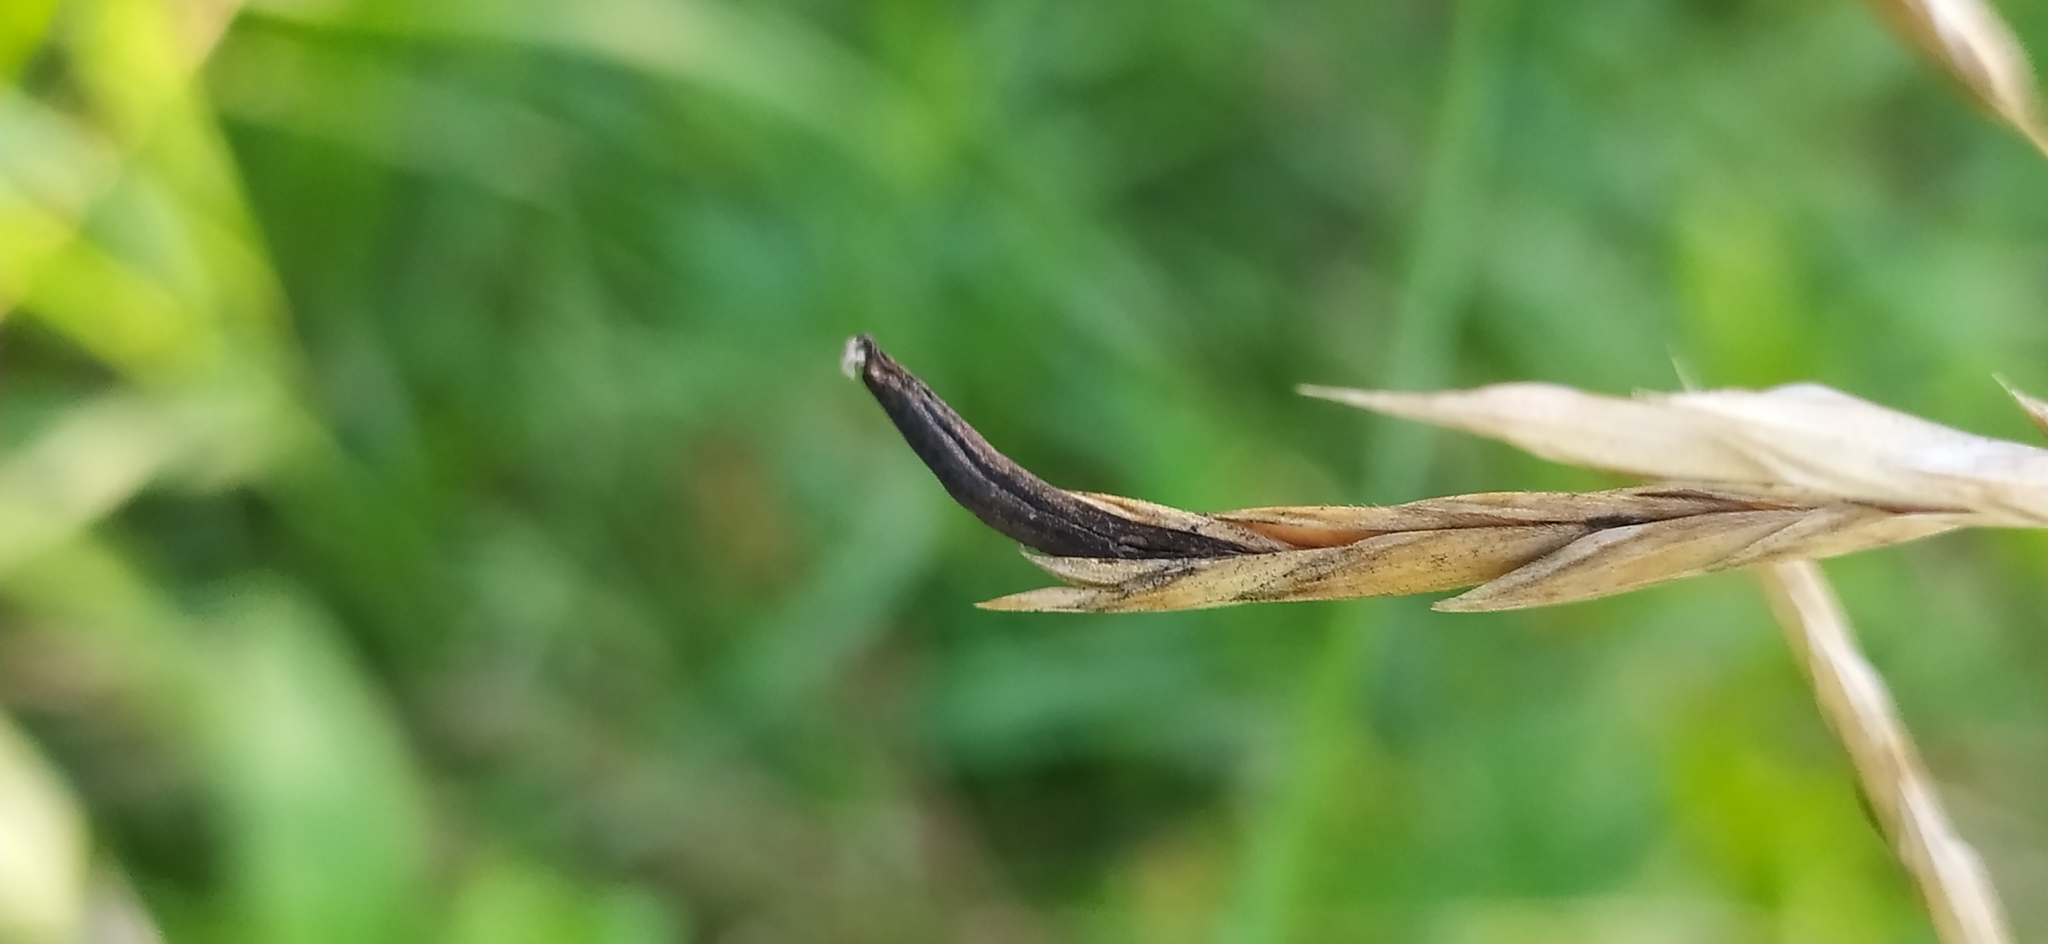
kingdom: Fungi
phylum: Ascomycota
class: Sordariomycetes
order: Hypocreales
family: Clavicipitaceae
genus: Claviceps
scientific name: Claviceps purpurea
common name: Rye ergot
